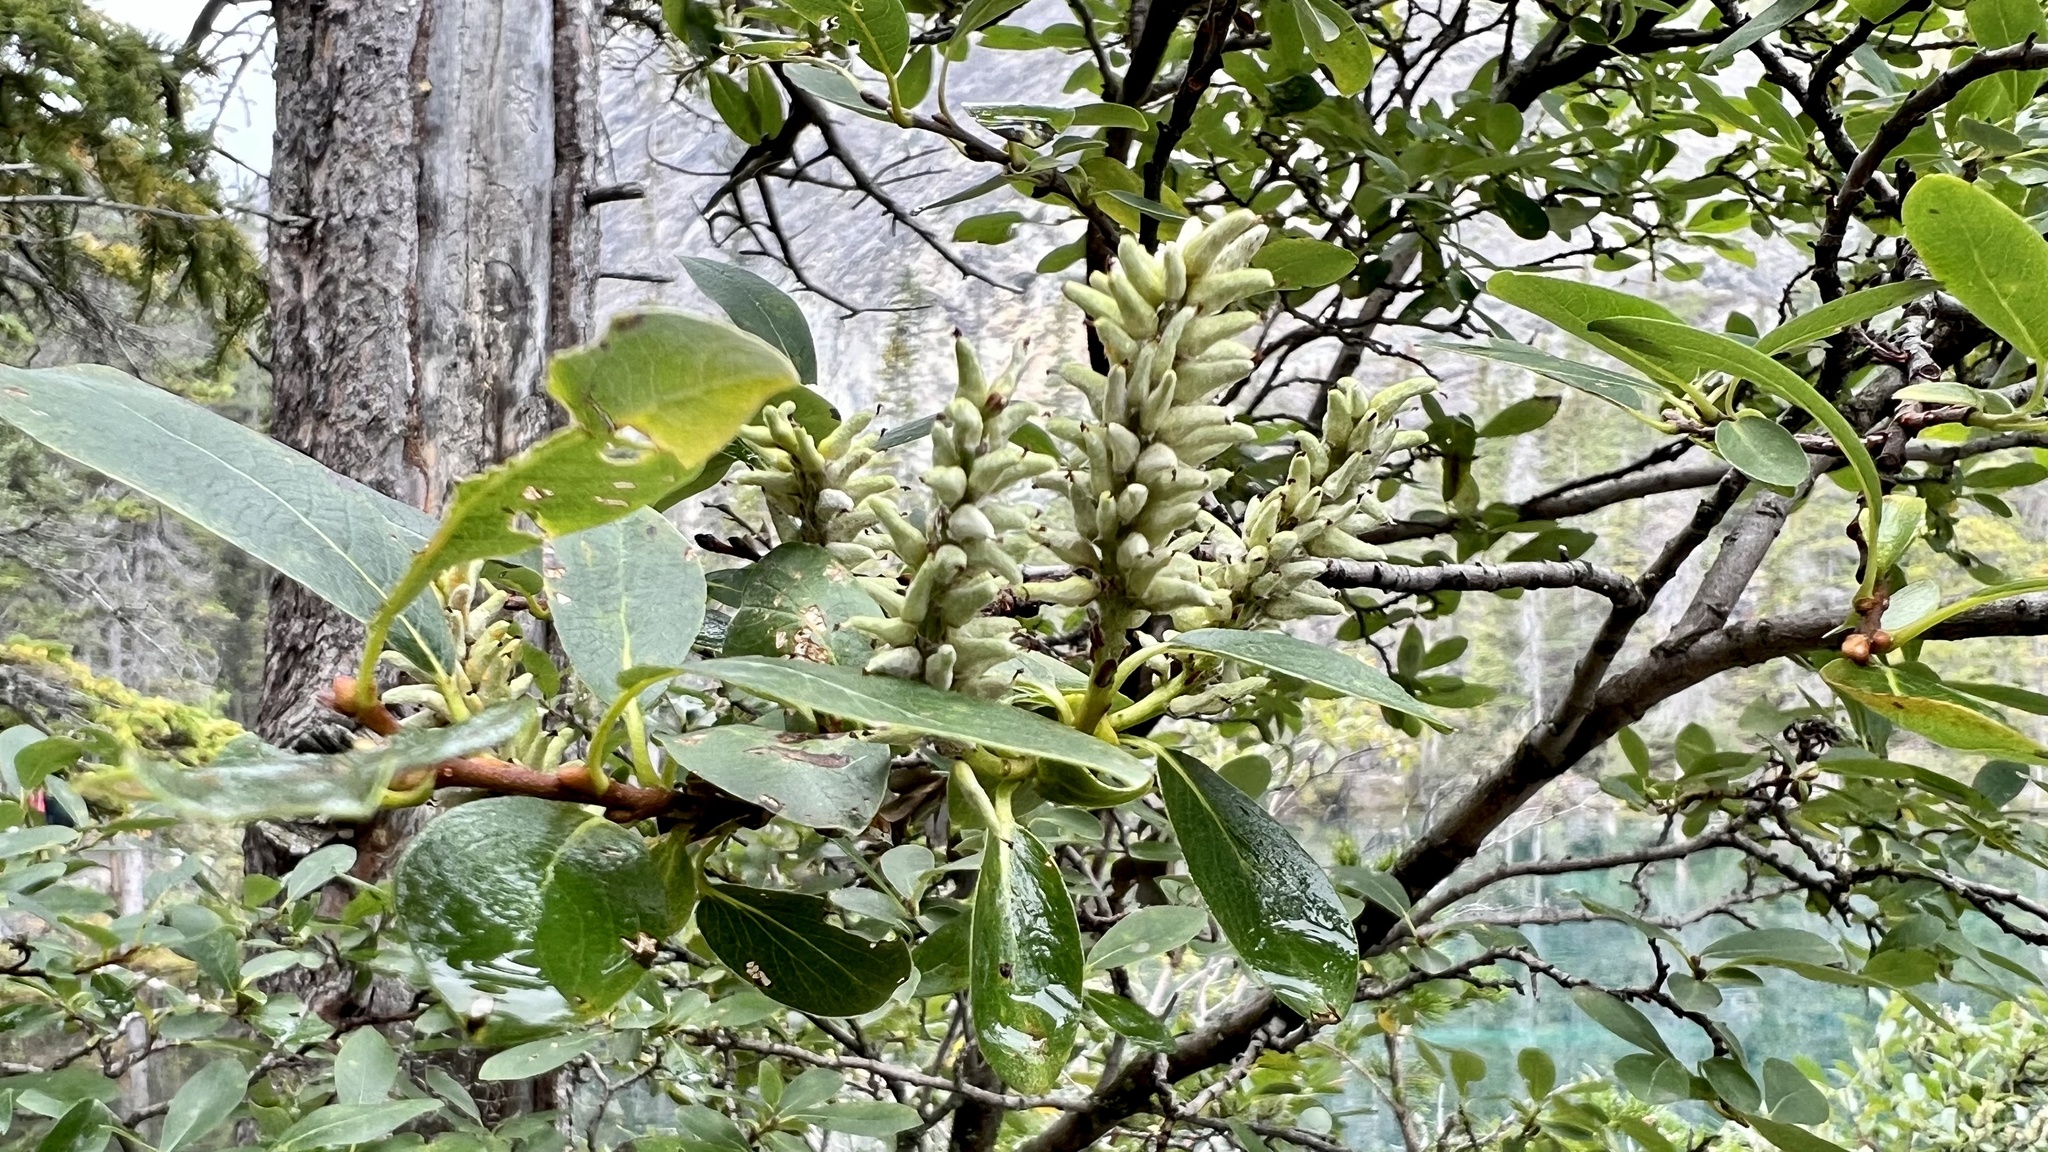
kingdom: Plantae
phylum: Tracheophyta
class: Magnoliopsida
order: Malpighiales
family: Salicaceae
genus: Salix
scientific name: Salix glauca
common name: Glaucous willow
